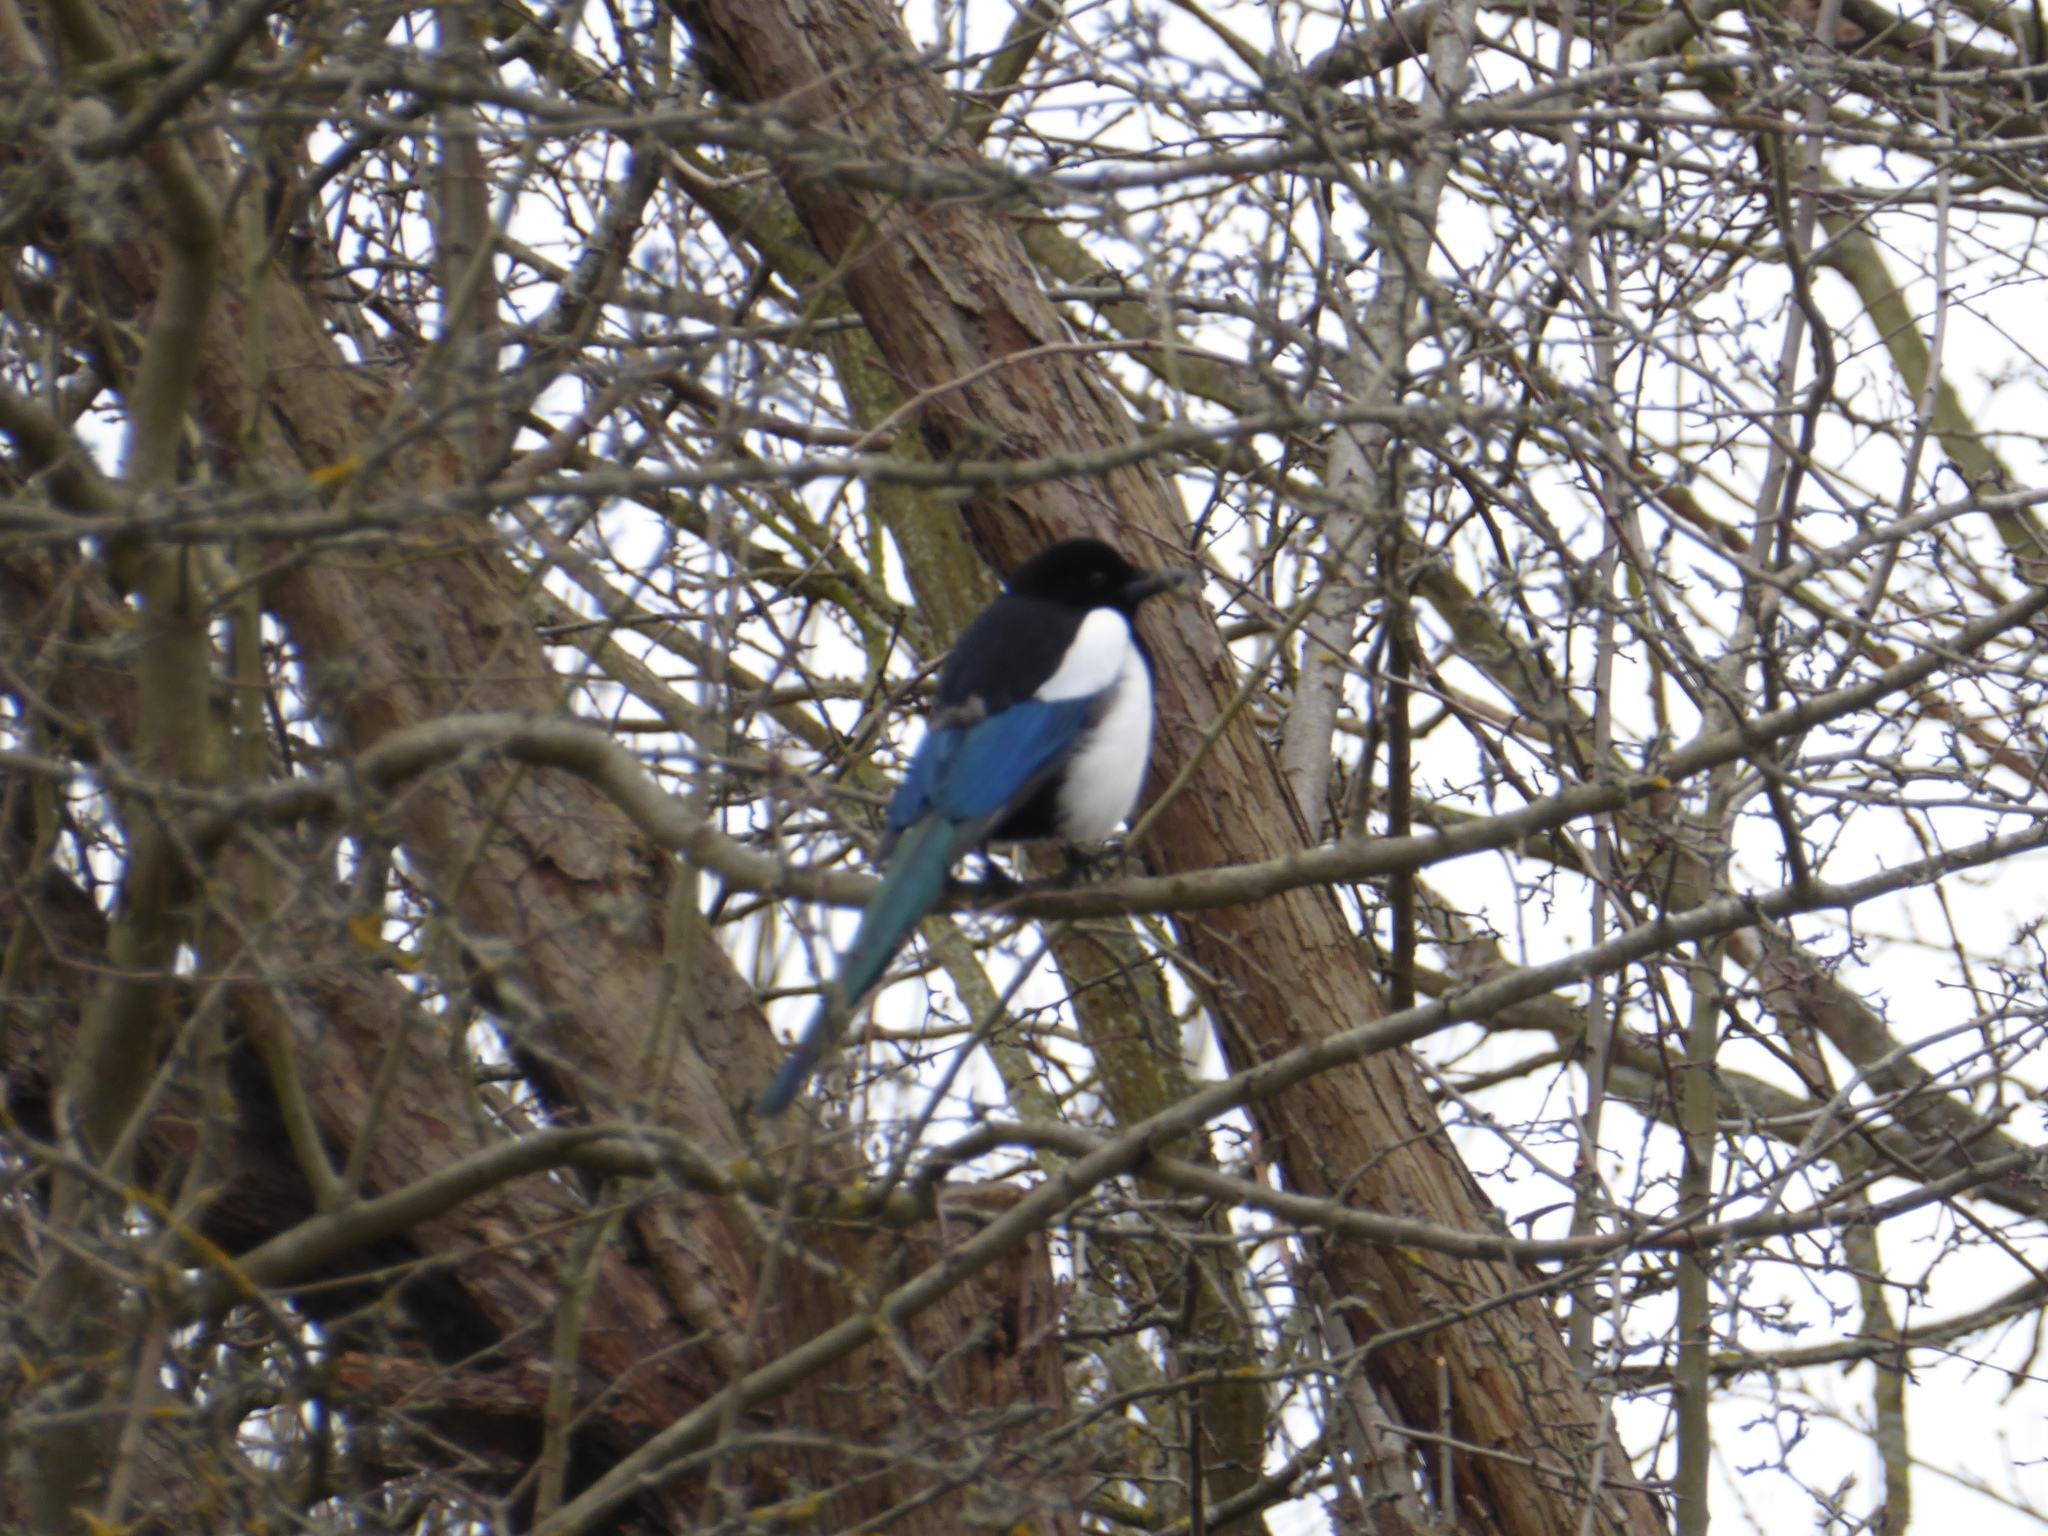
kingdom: Animalia
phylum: Chordata
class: Aves
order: Passeriformes
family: Corvidae
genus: Pica
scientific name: Pica pica
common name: Eurasian magpie
